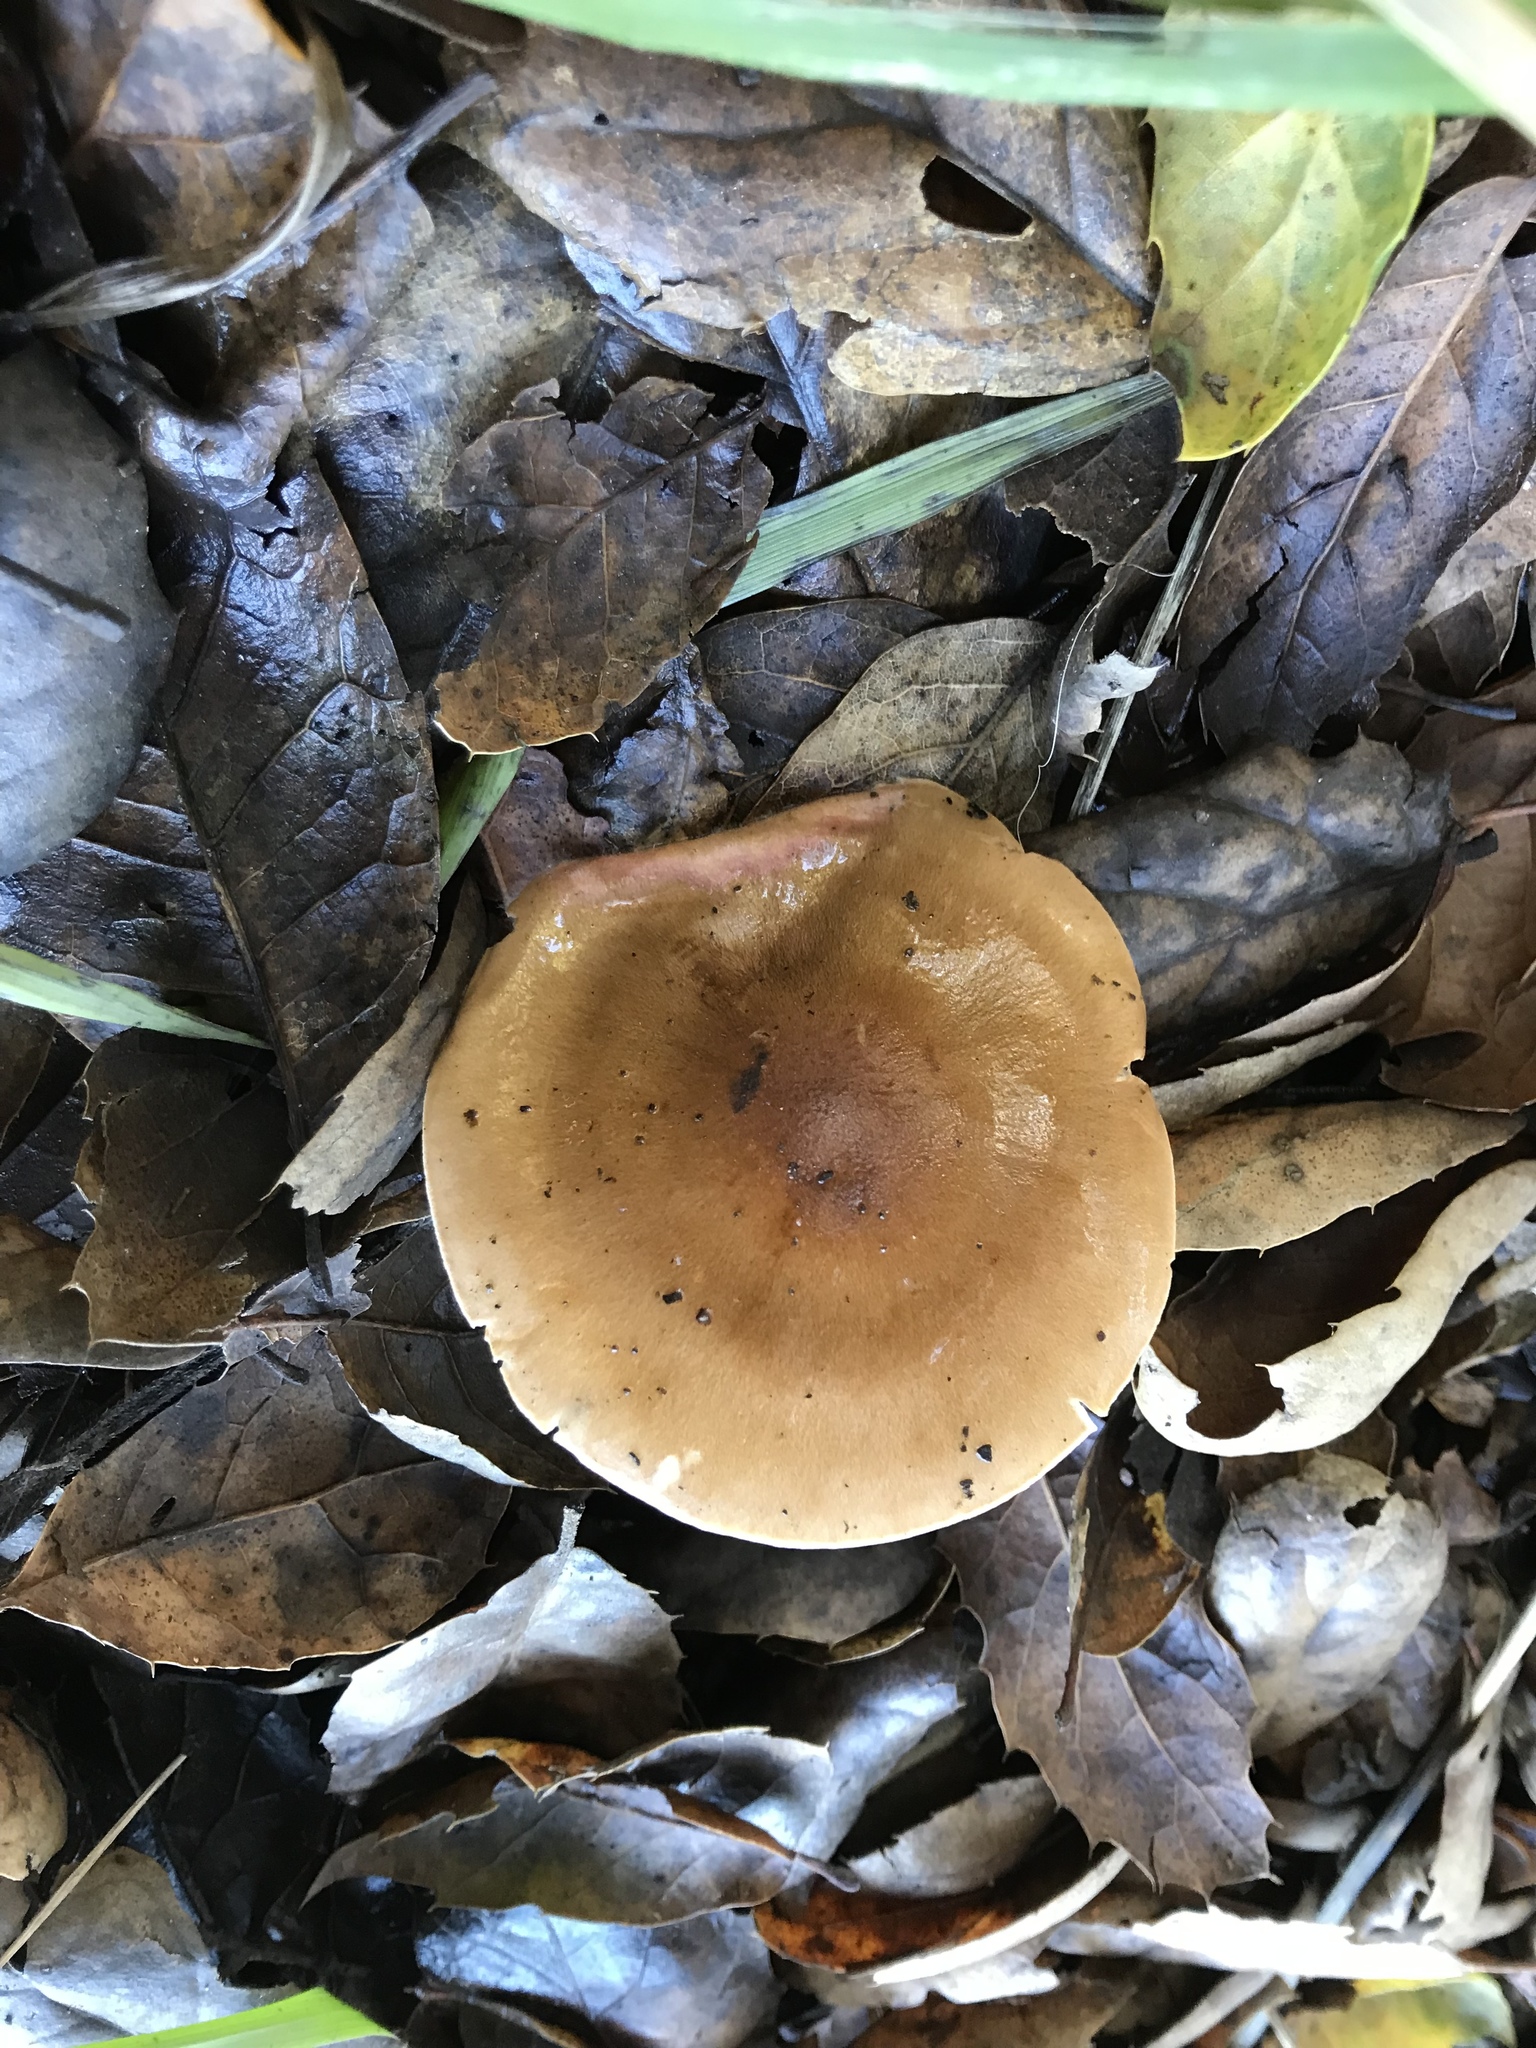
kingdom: Fungi
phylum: Basidiomycota
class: Agaricomycetes
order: Agaricales
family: Hygrophoraceae
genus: Hygrophorus
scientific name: Hygrophorus roseobrunneus
